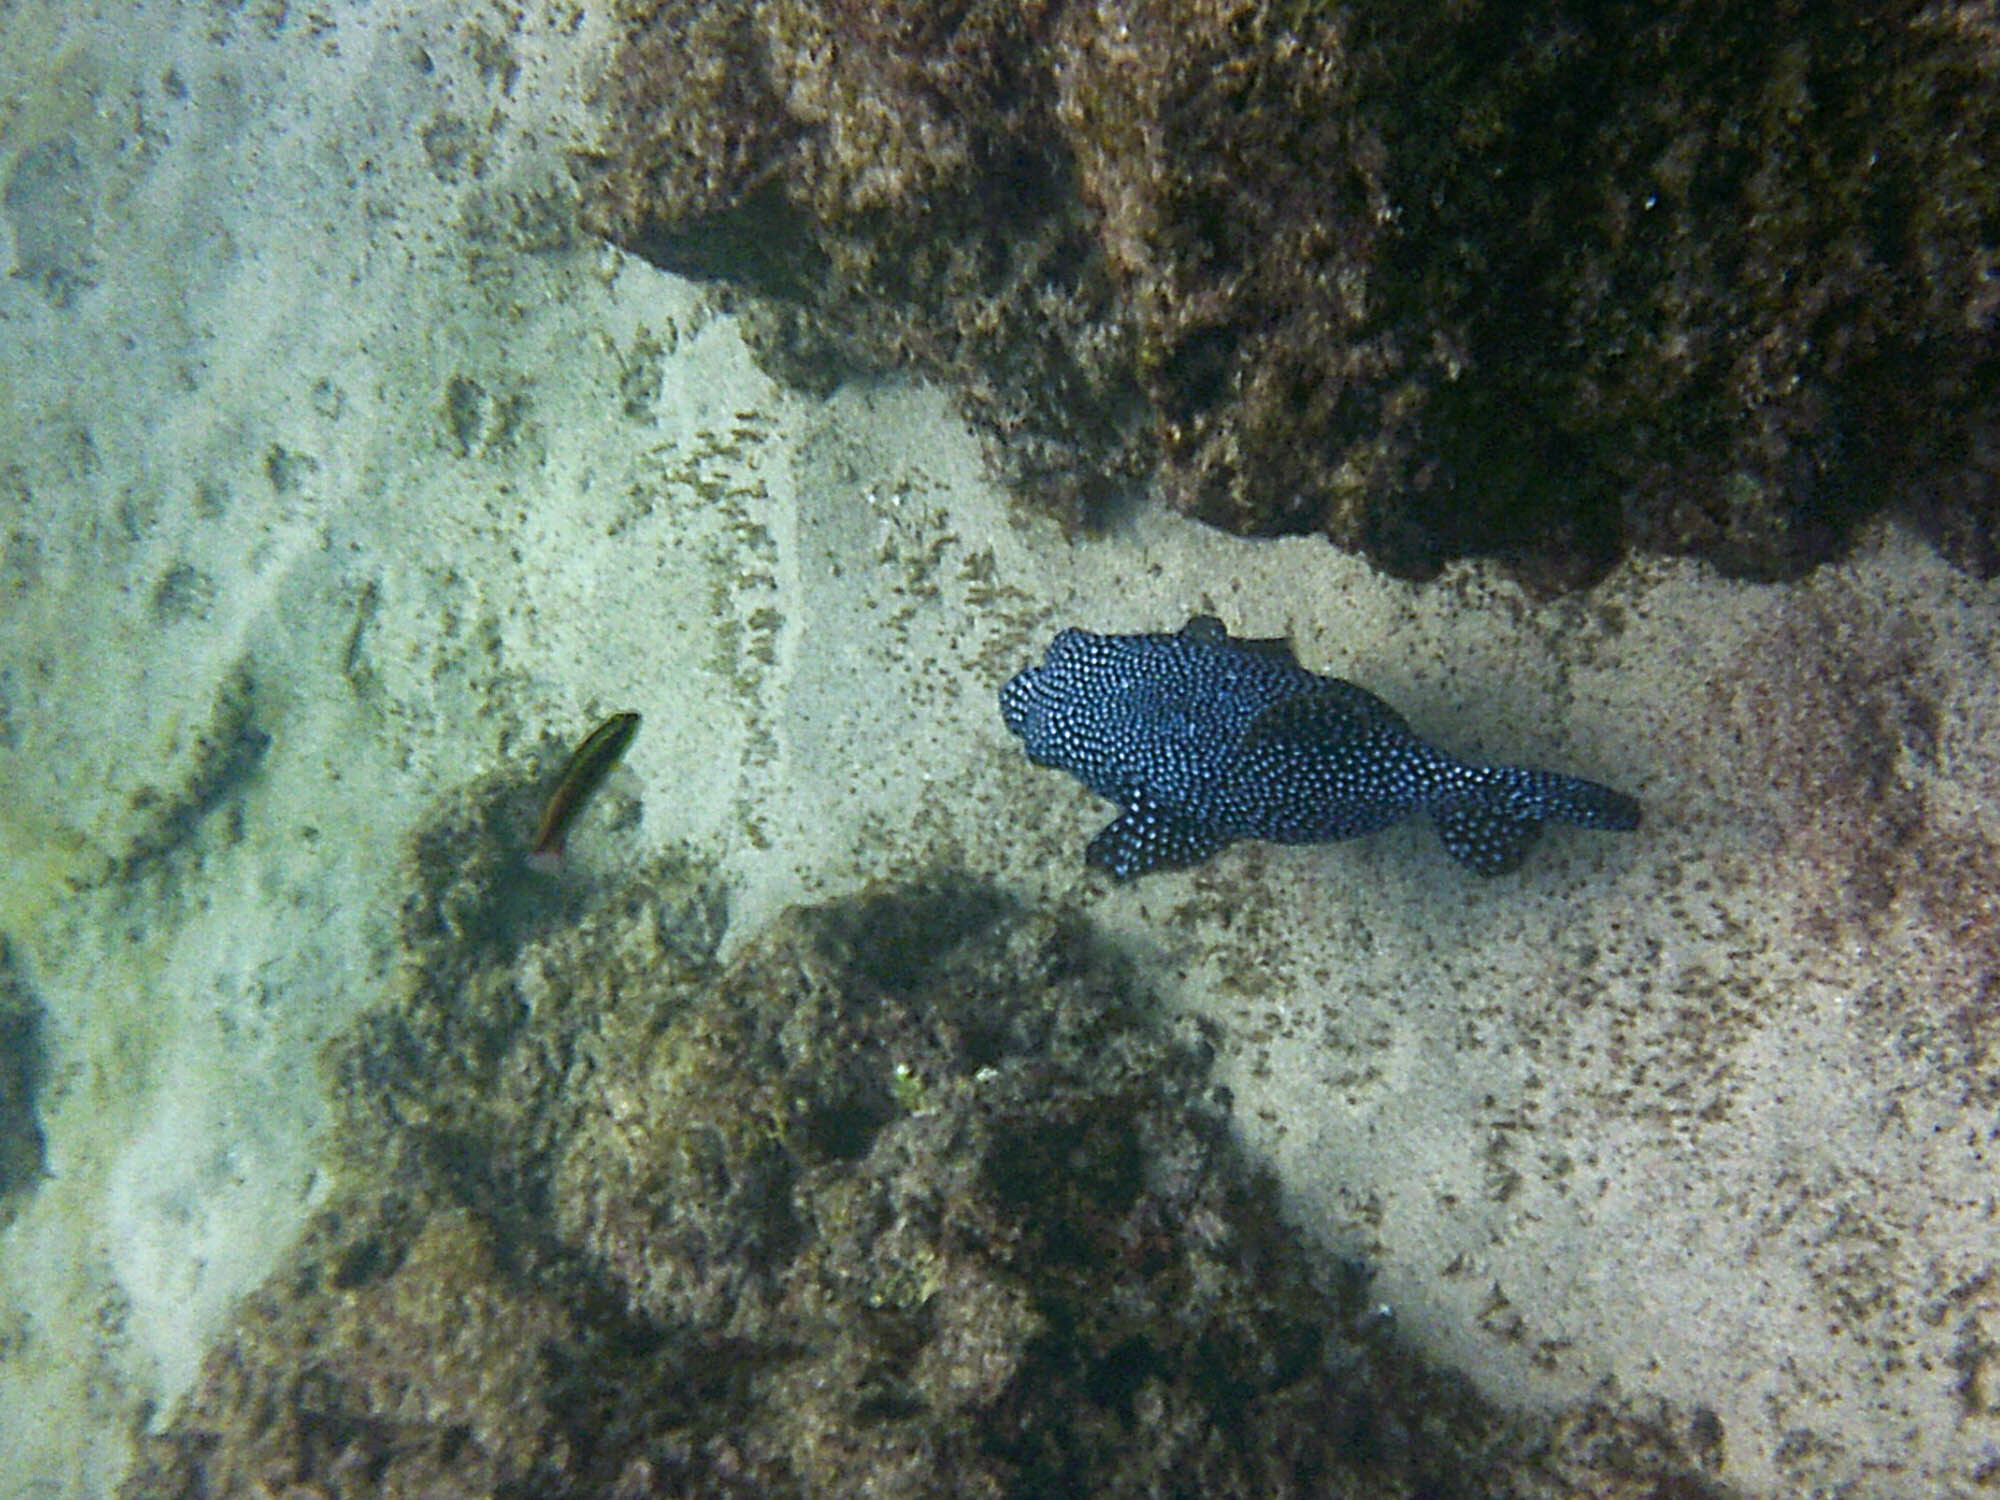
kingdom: Animalia
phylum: Chordata
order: Tetraodontiformes
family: Tetraodontidae
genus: Arothron
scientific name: Arothron meleagris
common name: Guinea-fowl pufferfish
